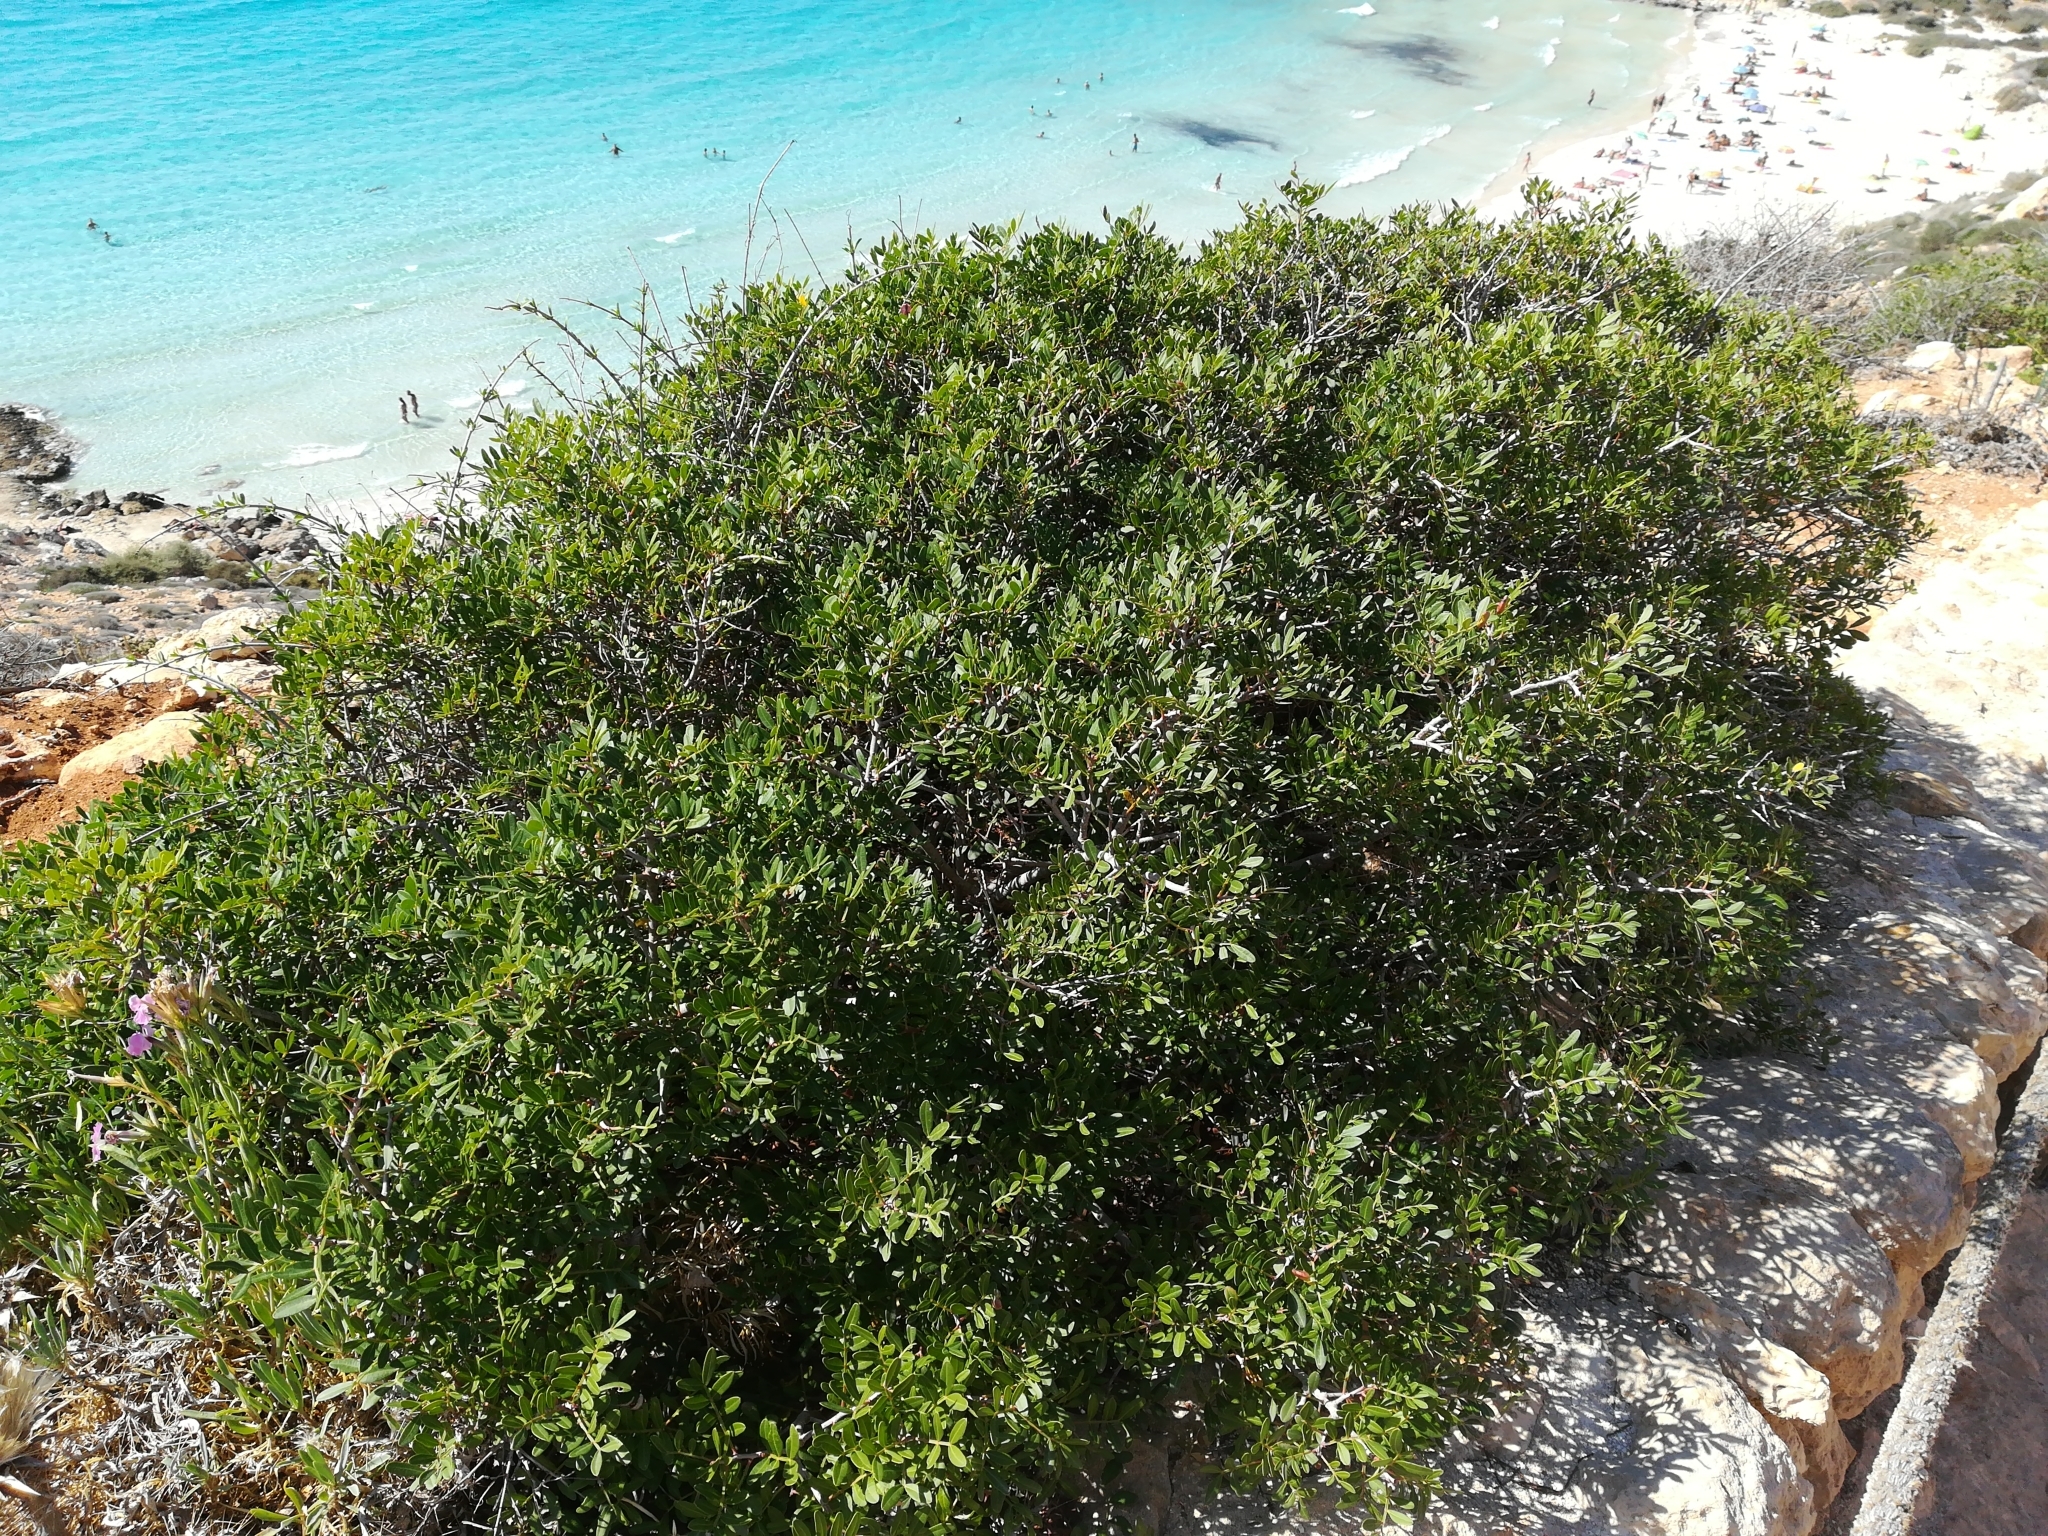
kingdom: Plantae
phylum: Tracheophyta
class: Magnoliopsida
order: Sapindales
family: Anacardiaceae
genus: Pistacia
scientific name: Pistacia lentiscus
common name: Lentisk
